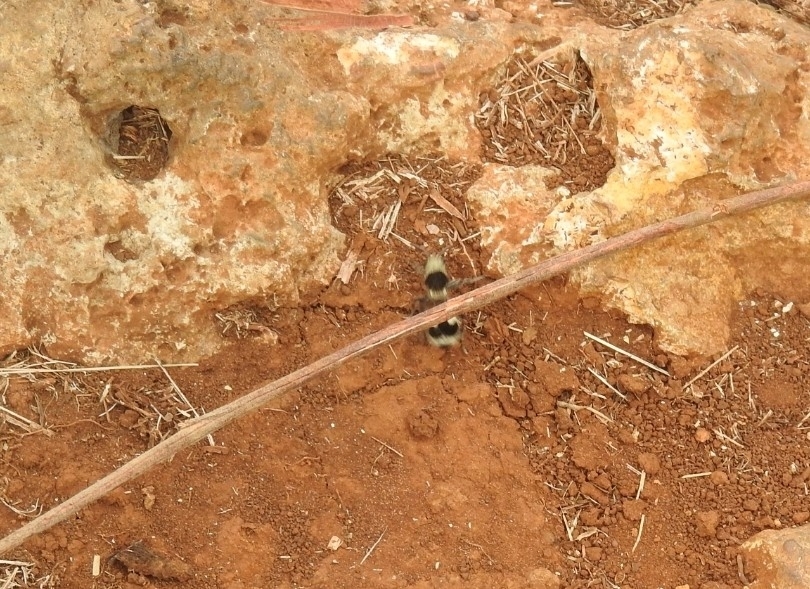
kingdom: Animalia
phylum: Arthropoda
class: Insecta
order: Hymenoptera
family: Mutillidae
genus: Dasymutilla
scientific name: Dasymutilla
